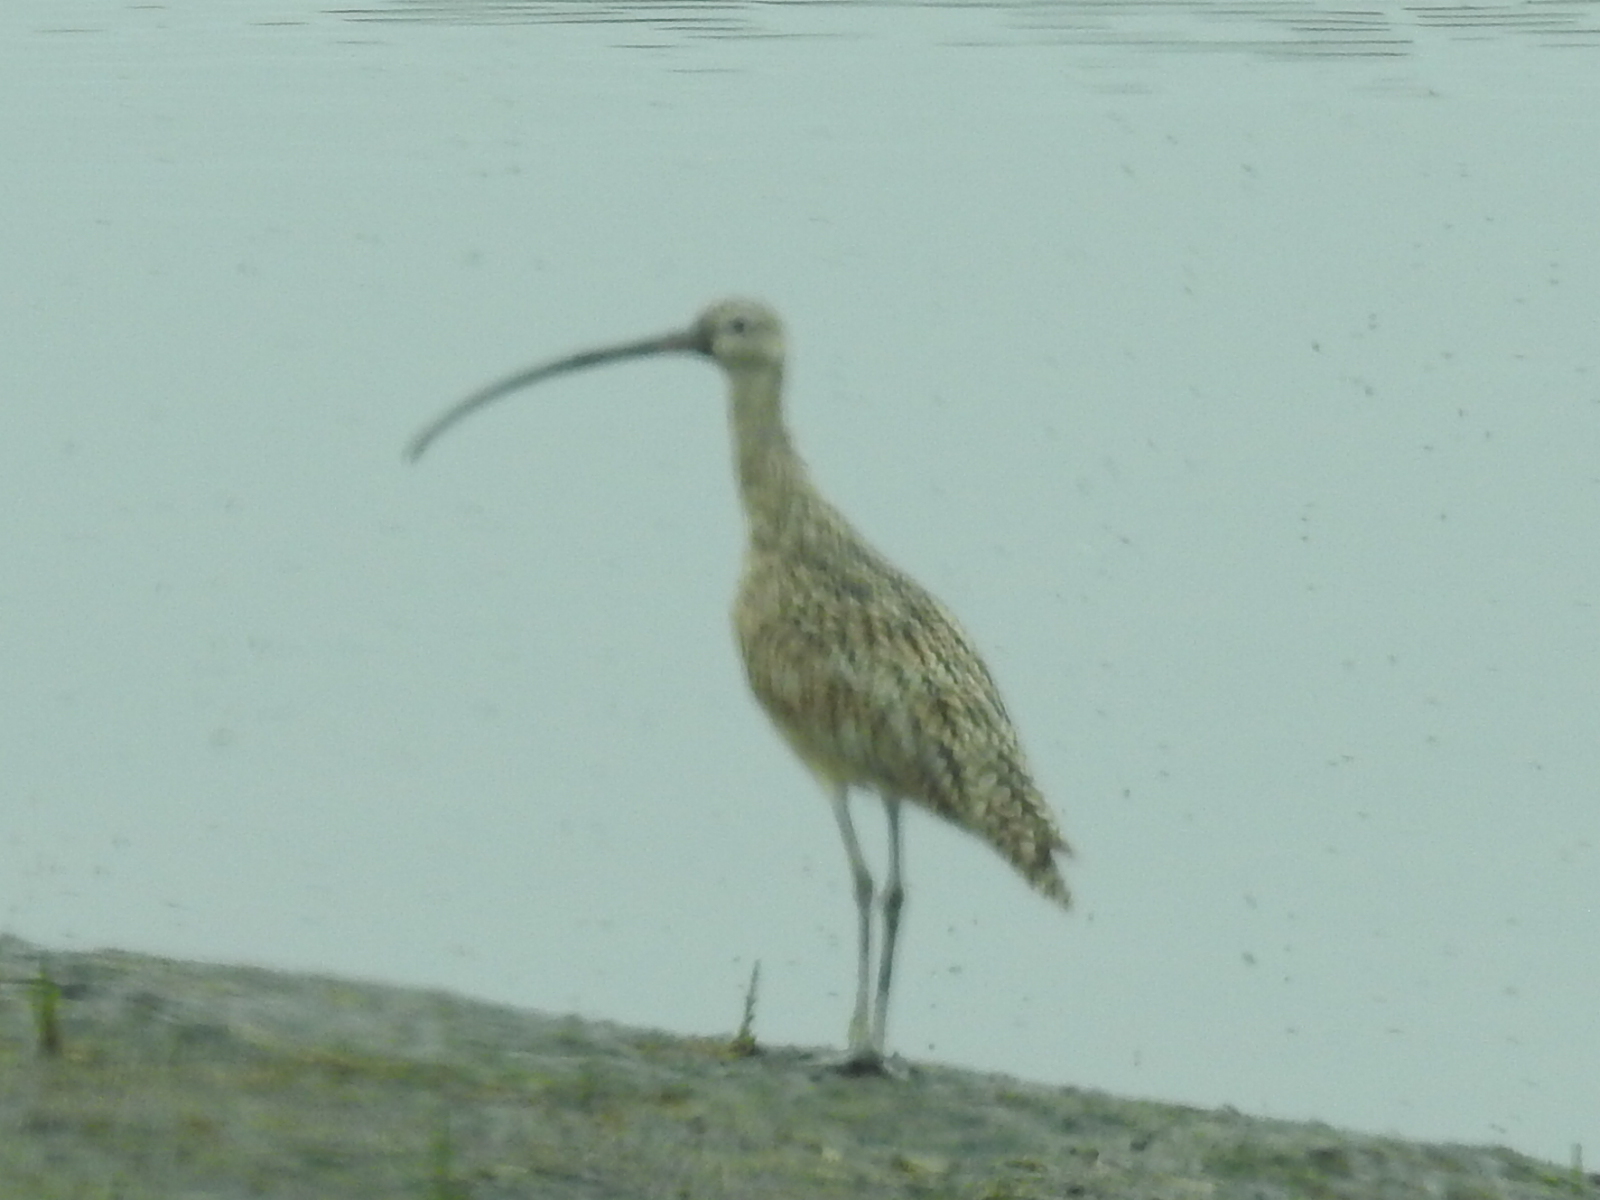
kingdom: Animalia
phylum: Chordata
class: Aves
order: Charadriiformes
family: Scolopacidae
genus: Numenius
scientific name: Numenius americanus
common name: Long-billed curlew
